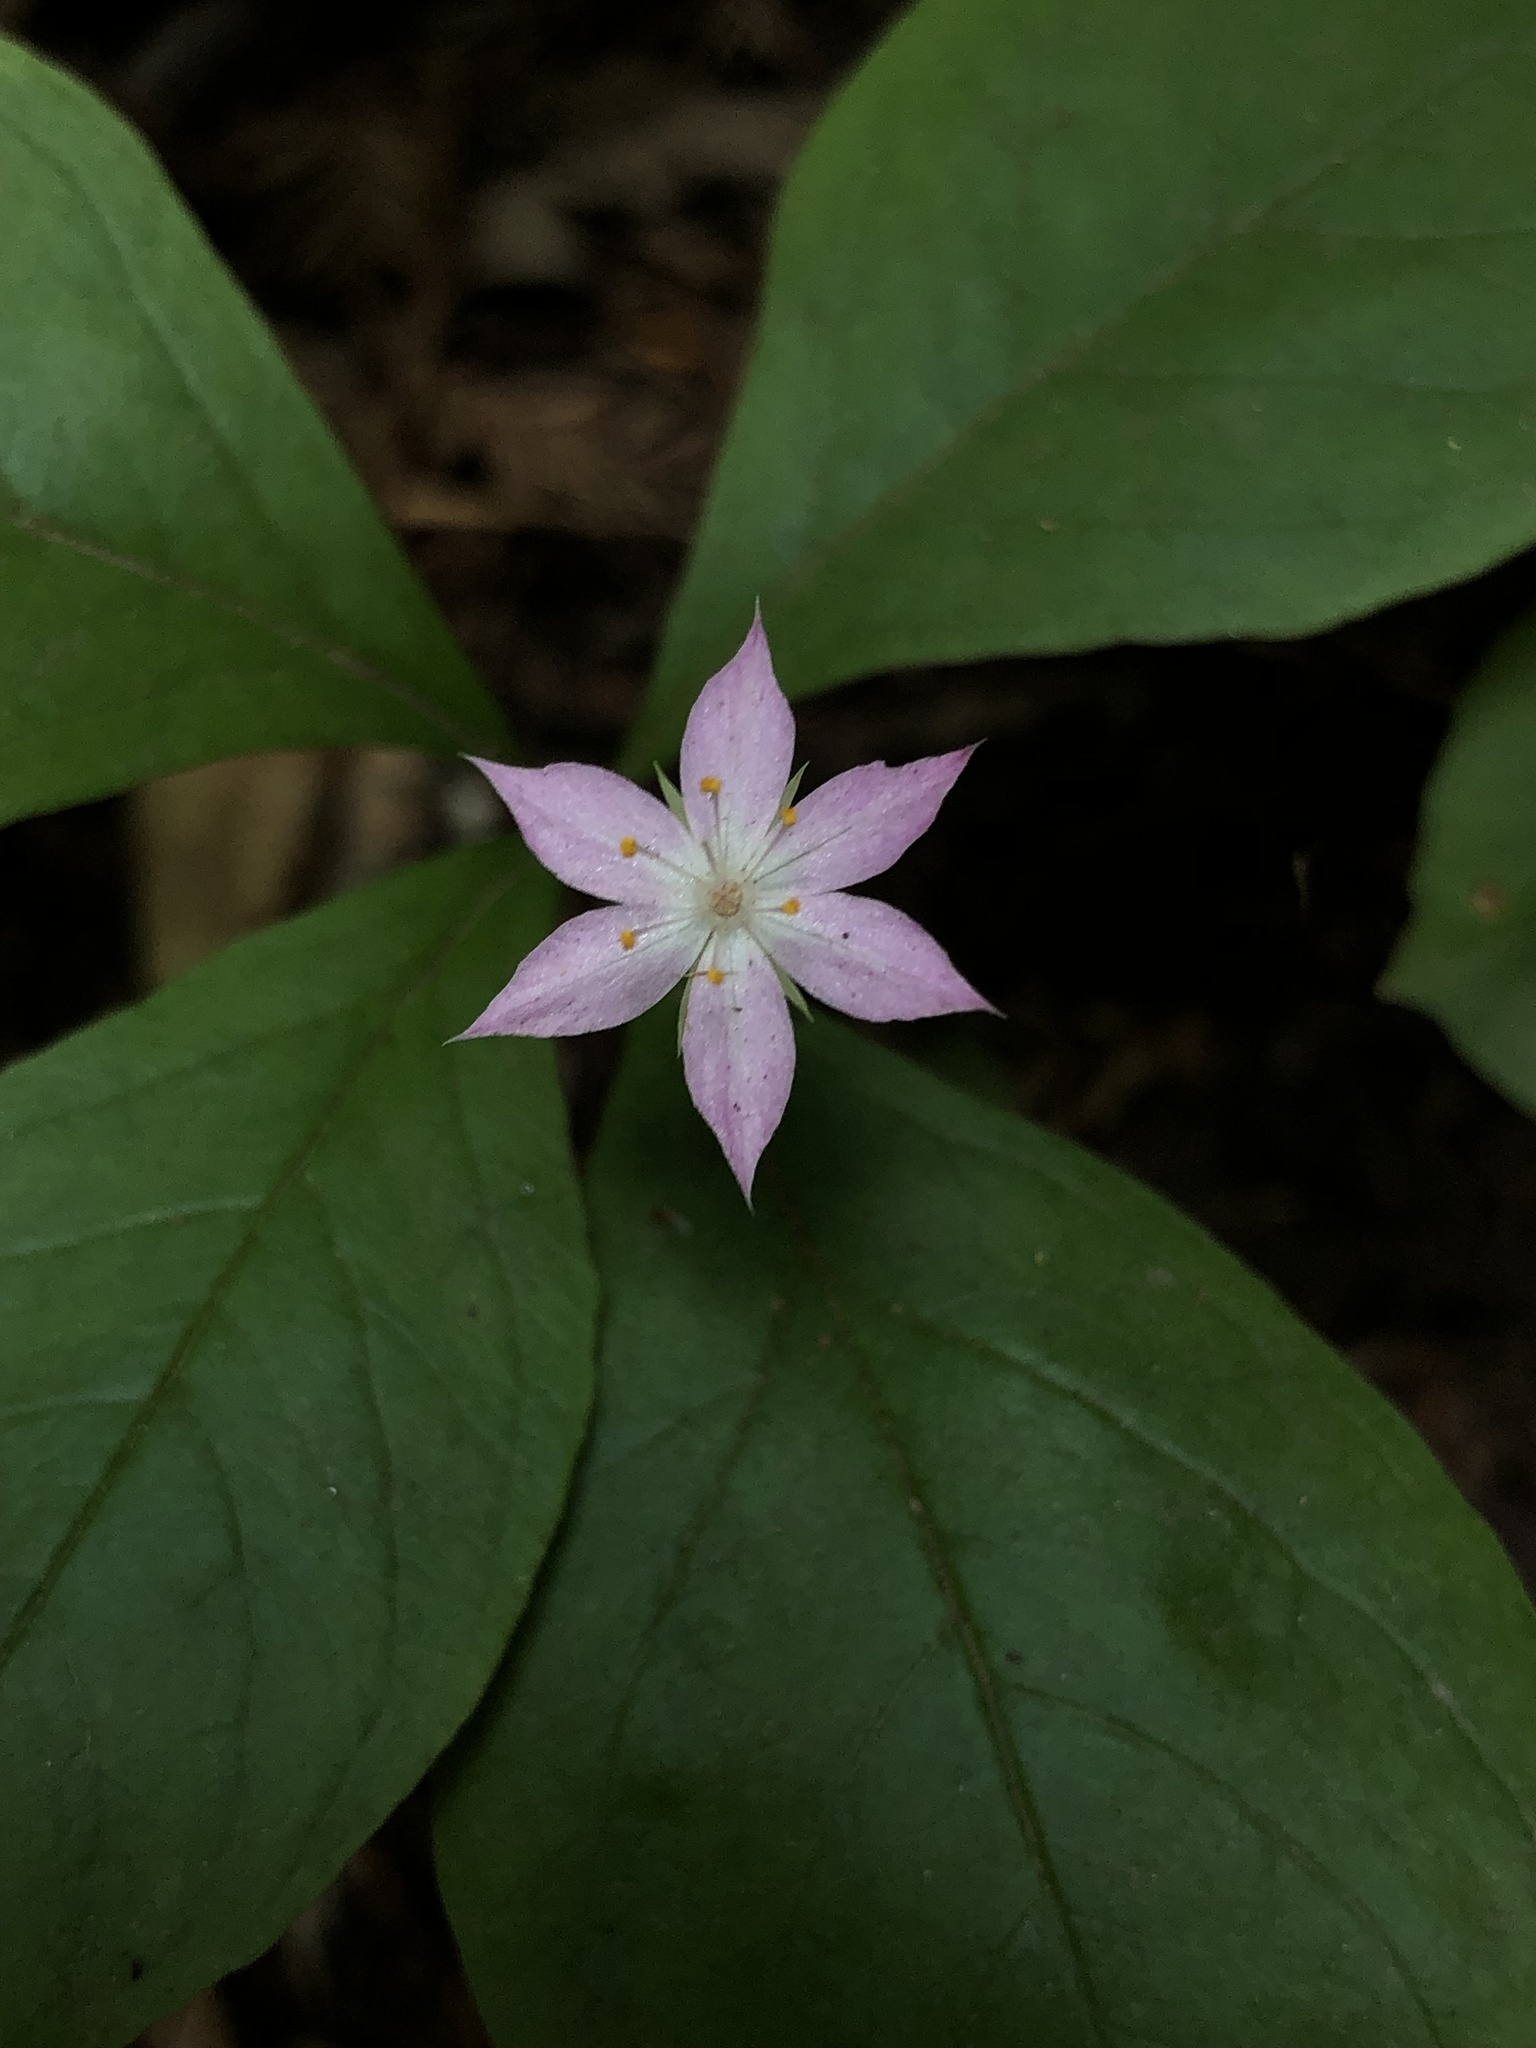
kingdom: Plantae
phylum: Tracheophyta
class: Magnoliopsida
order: Ericales
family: Primulaceae
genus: Lysimachia
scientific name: Lysimachia latifolia
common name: Pacific starflower
